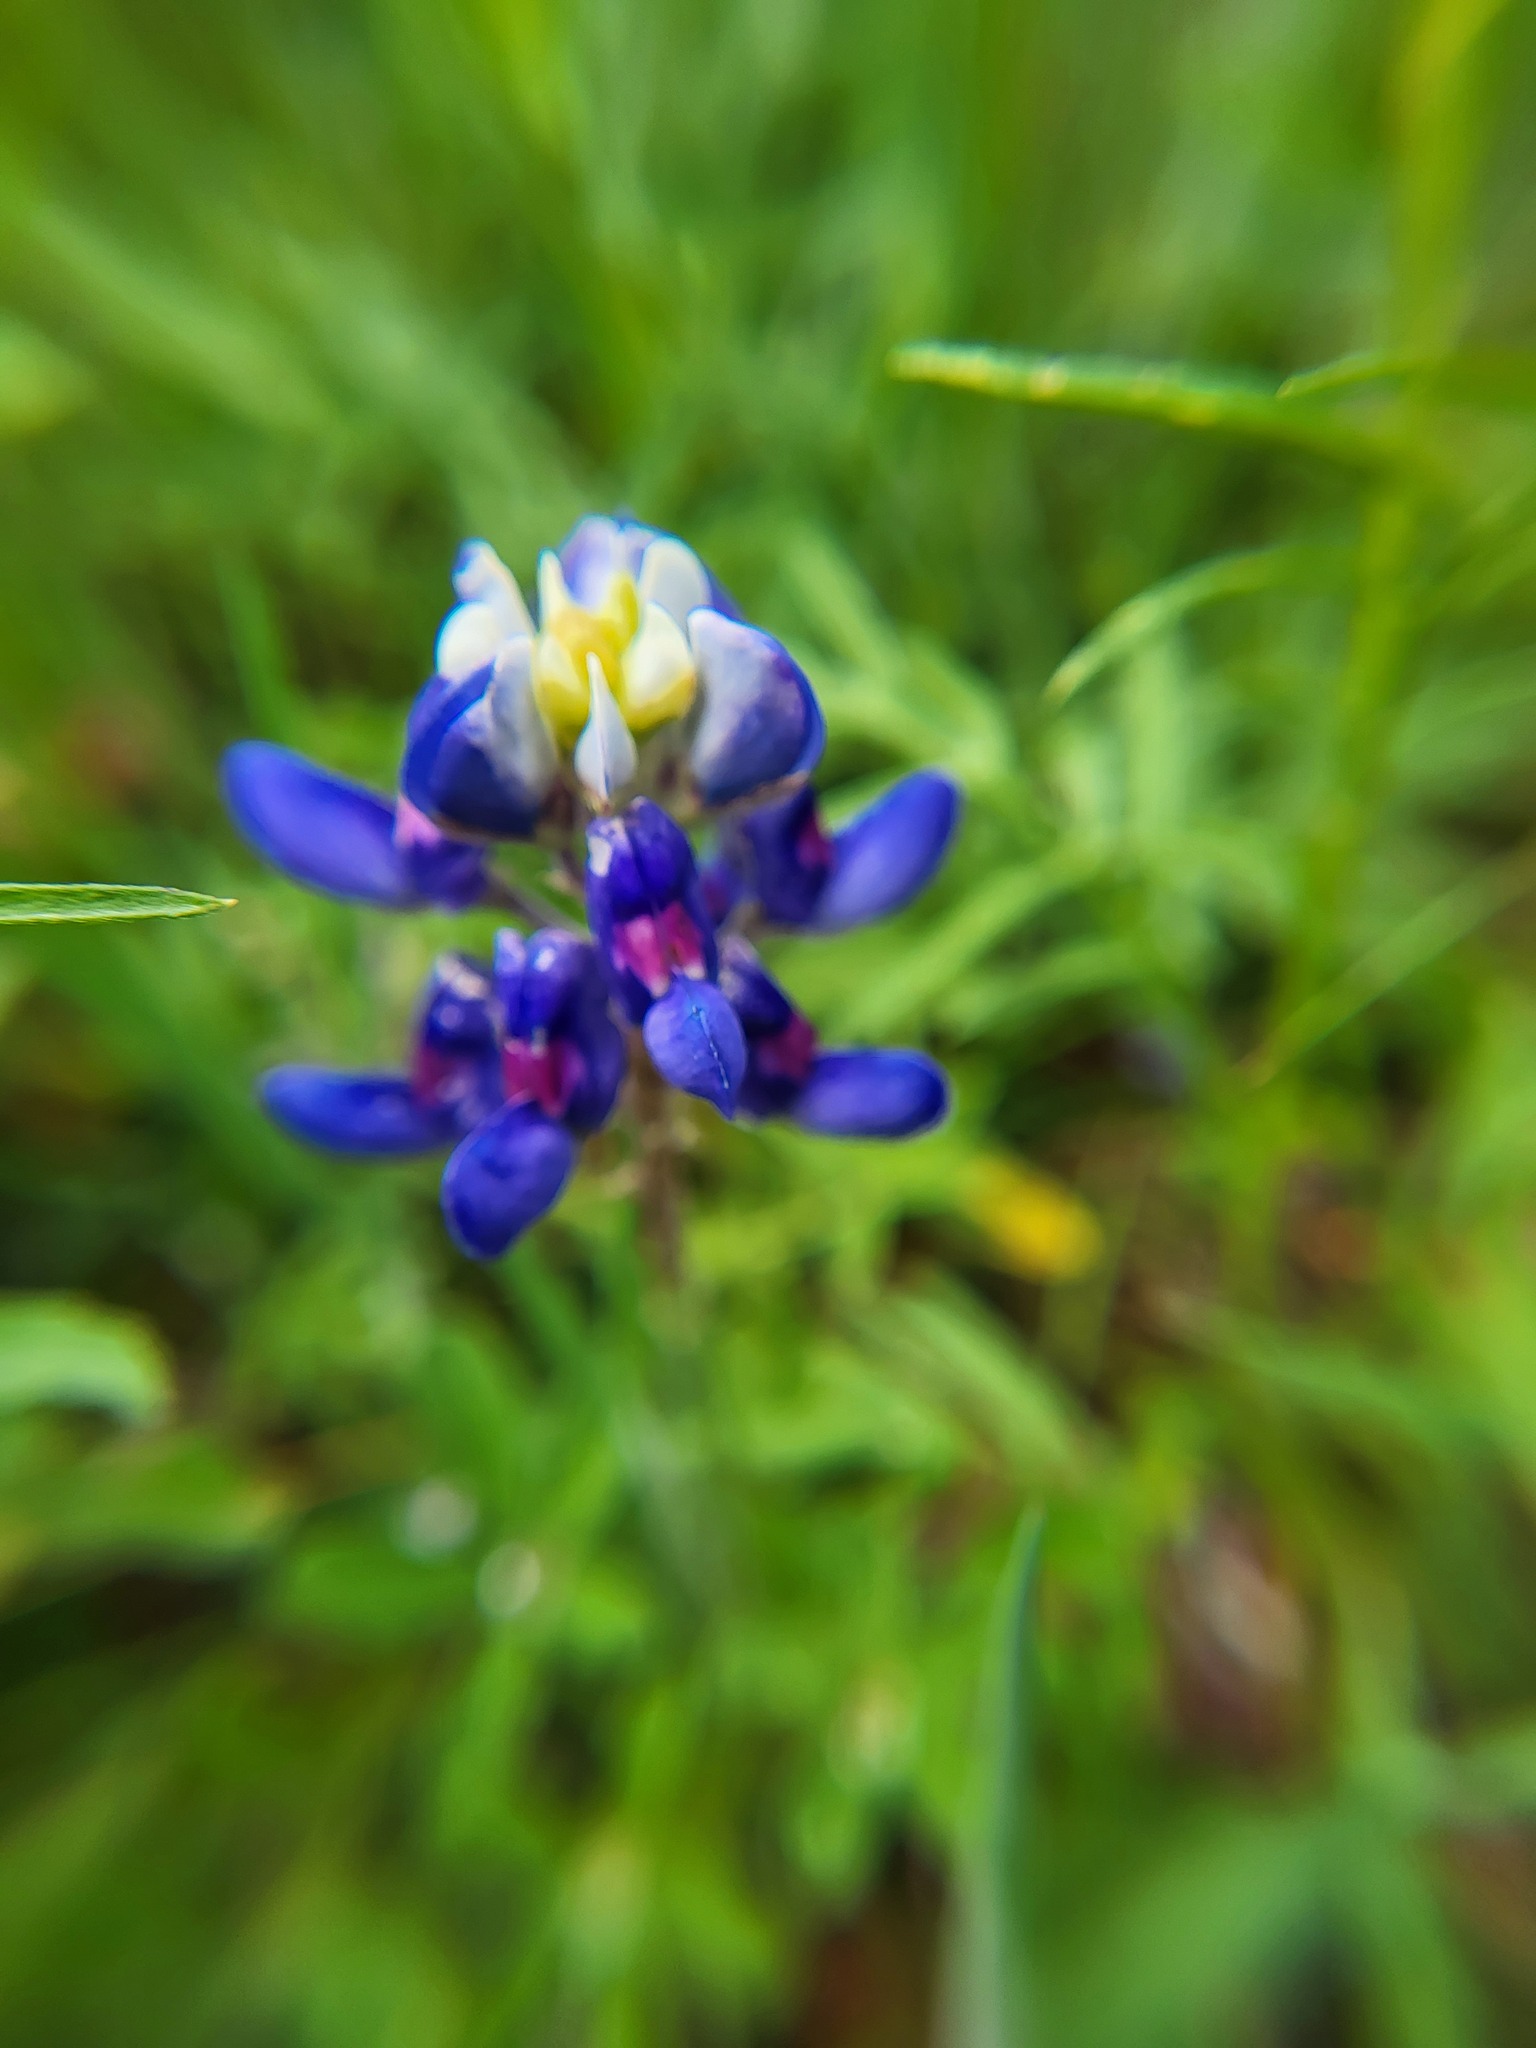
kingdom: Plantae
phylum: Tracheophyta
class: Magnoliopsida
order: Fabales
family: Fabaceae
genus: Lupinus
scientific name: Lupinus texensis
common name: Texas bluebonnet
